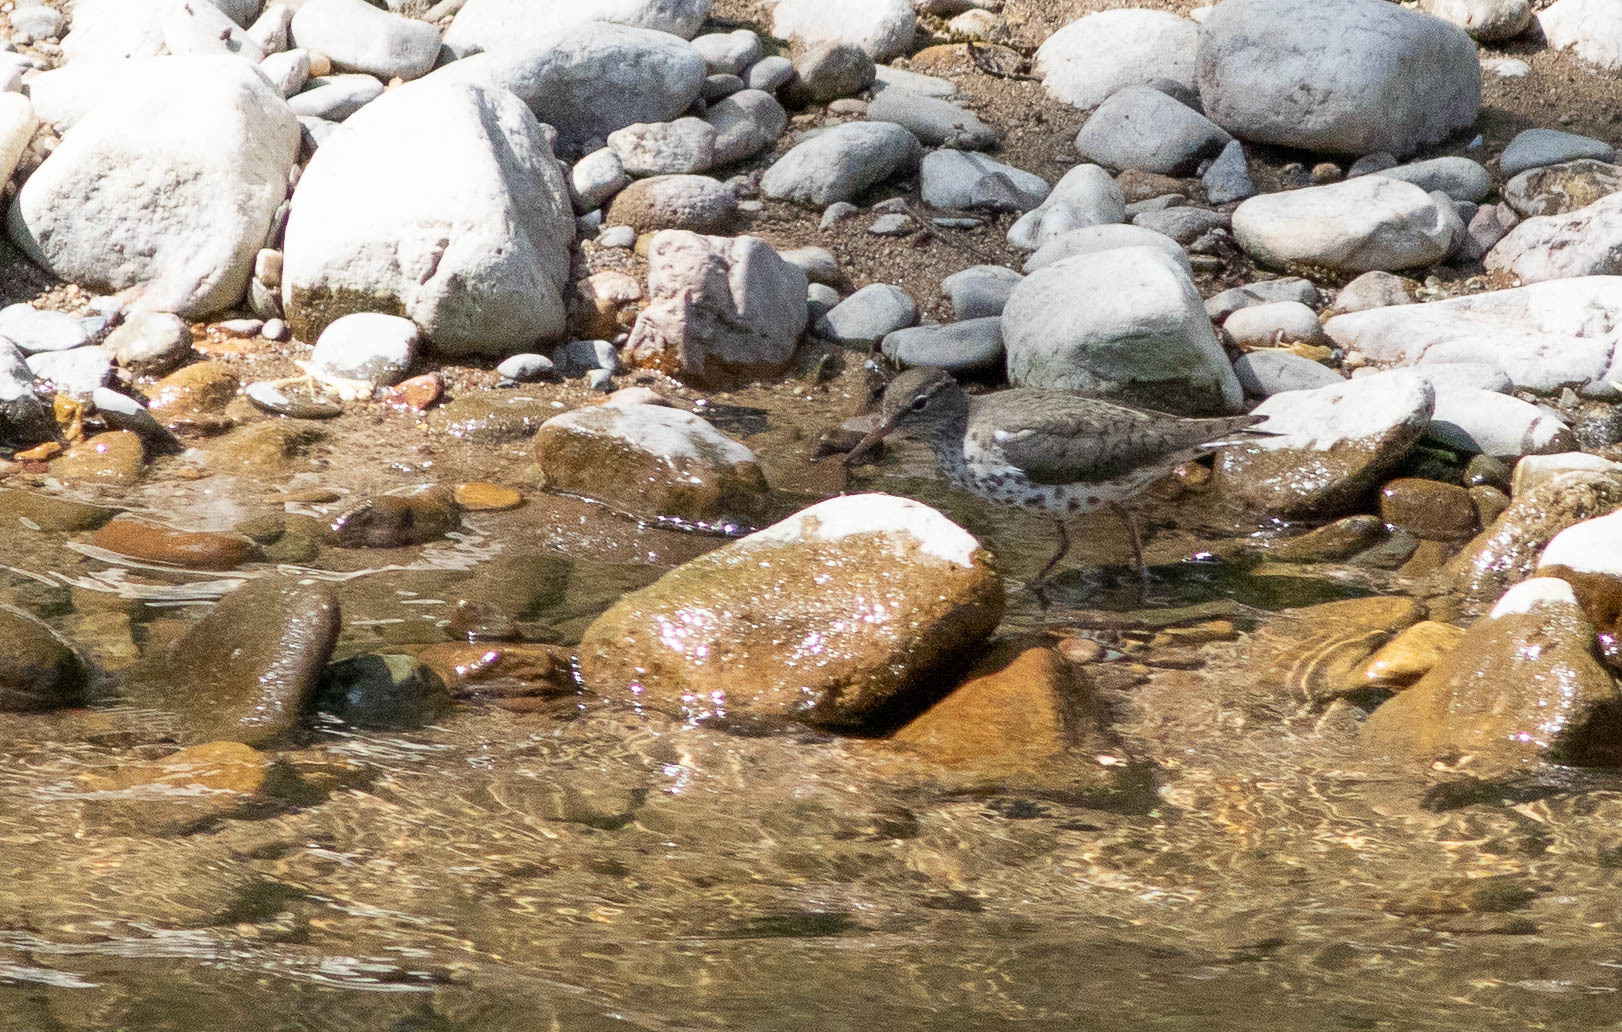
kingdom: Animalia
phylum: Chordata
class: Aves
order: Charadriiformes
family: Scolopacidae
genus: Actitis
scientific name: Actitis macularius
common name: Spotted sandpiper
